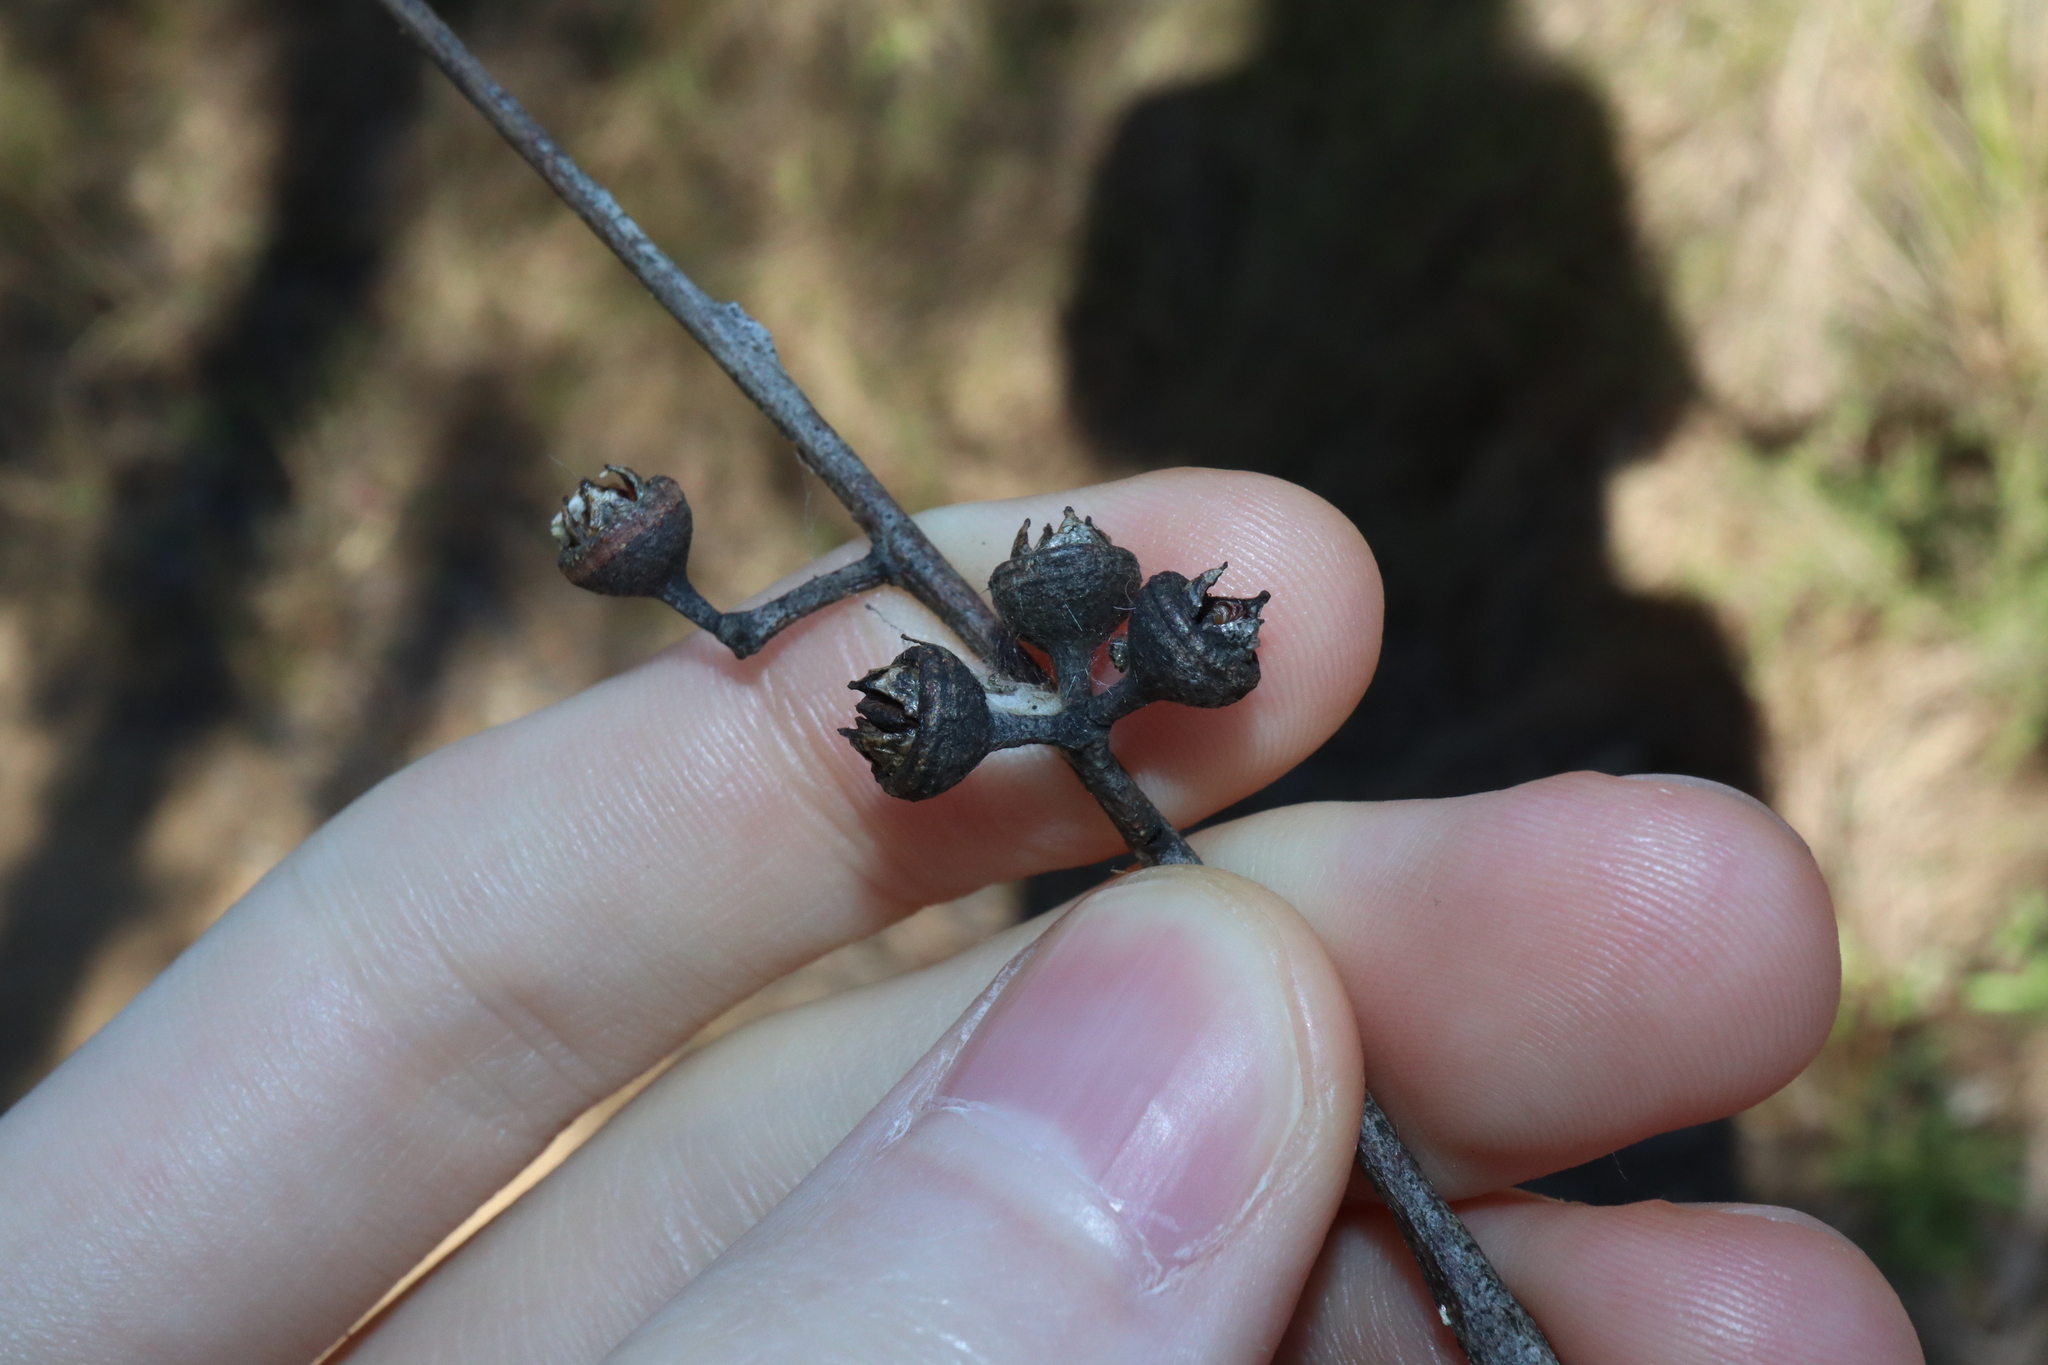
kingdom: Plantae
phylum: Tracheophyta
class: Magnoliopsida
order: Myrtales
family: Myrtaceae
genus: Eucalyptus
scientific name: Eucalyptus parramattensis
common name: Parramatta red gum
